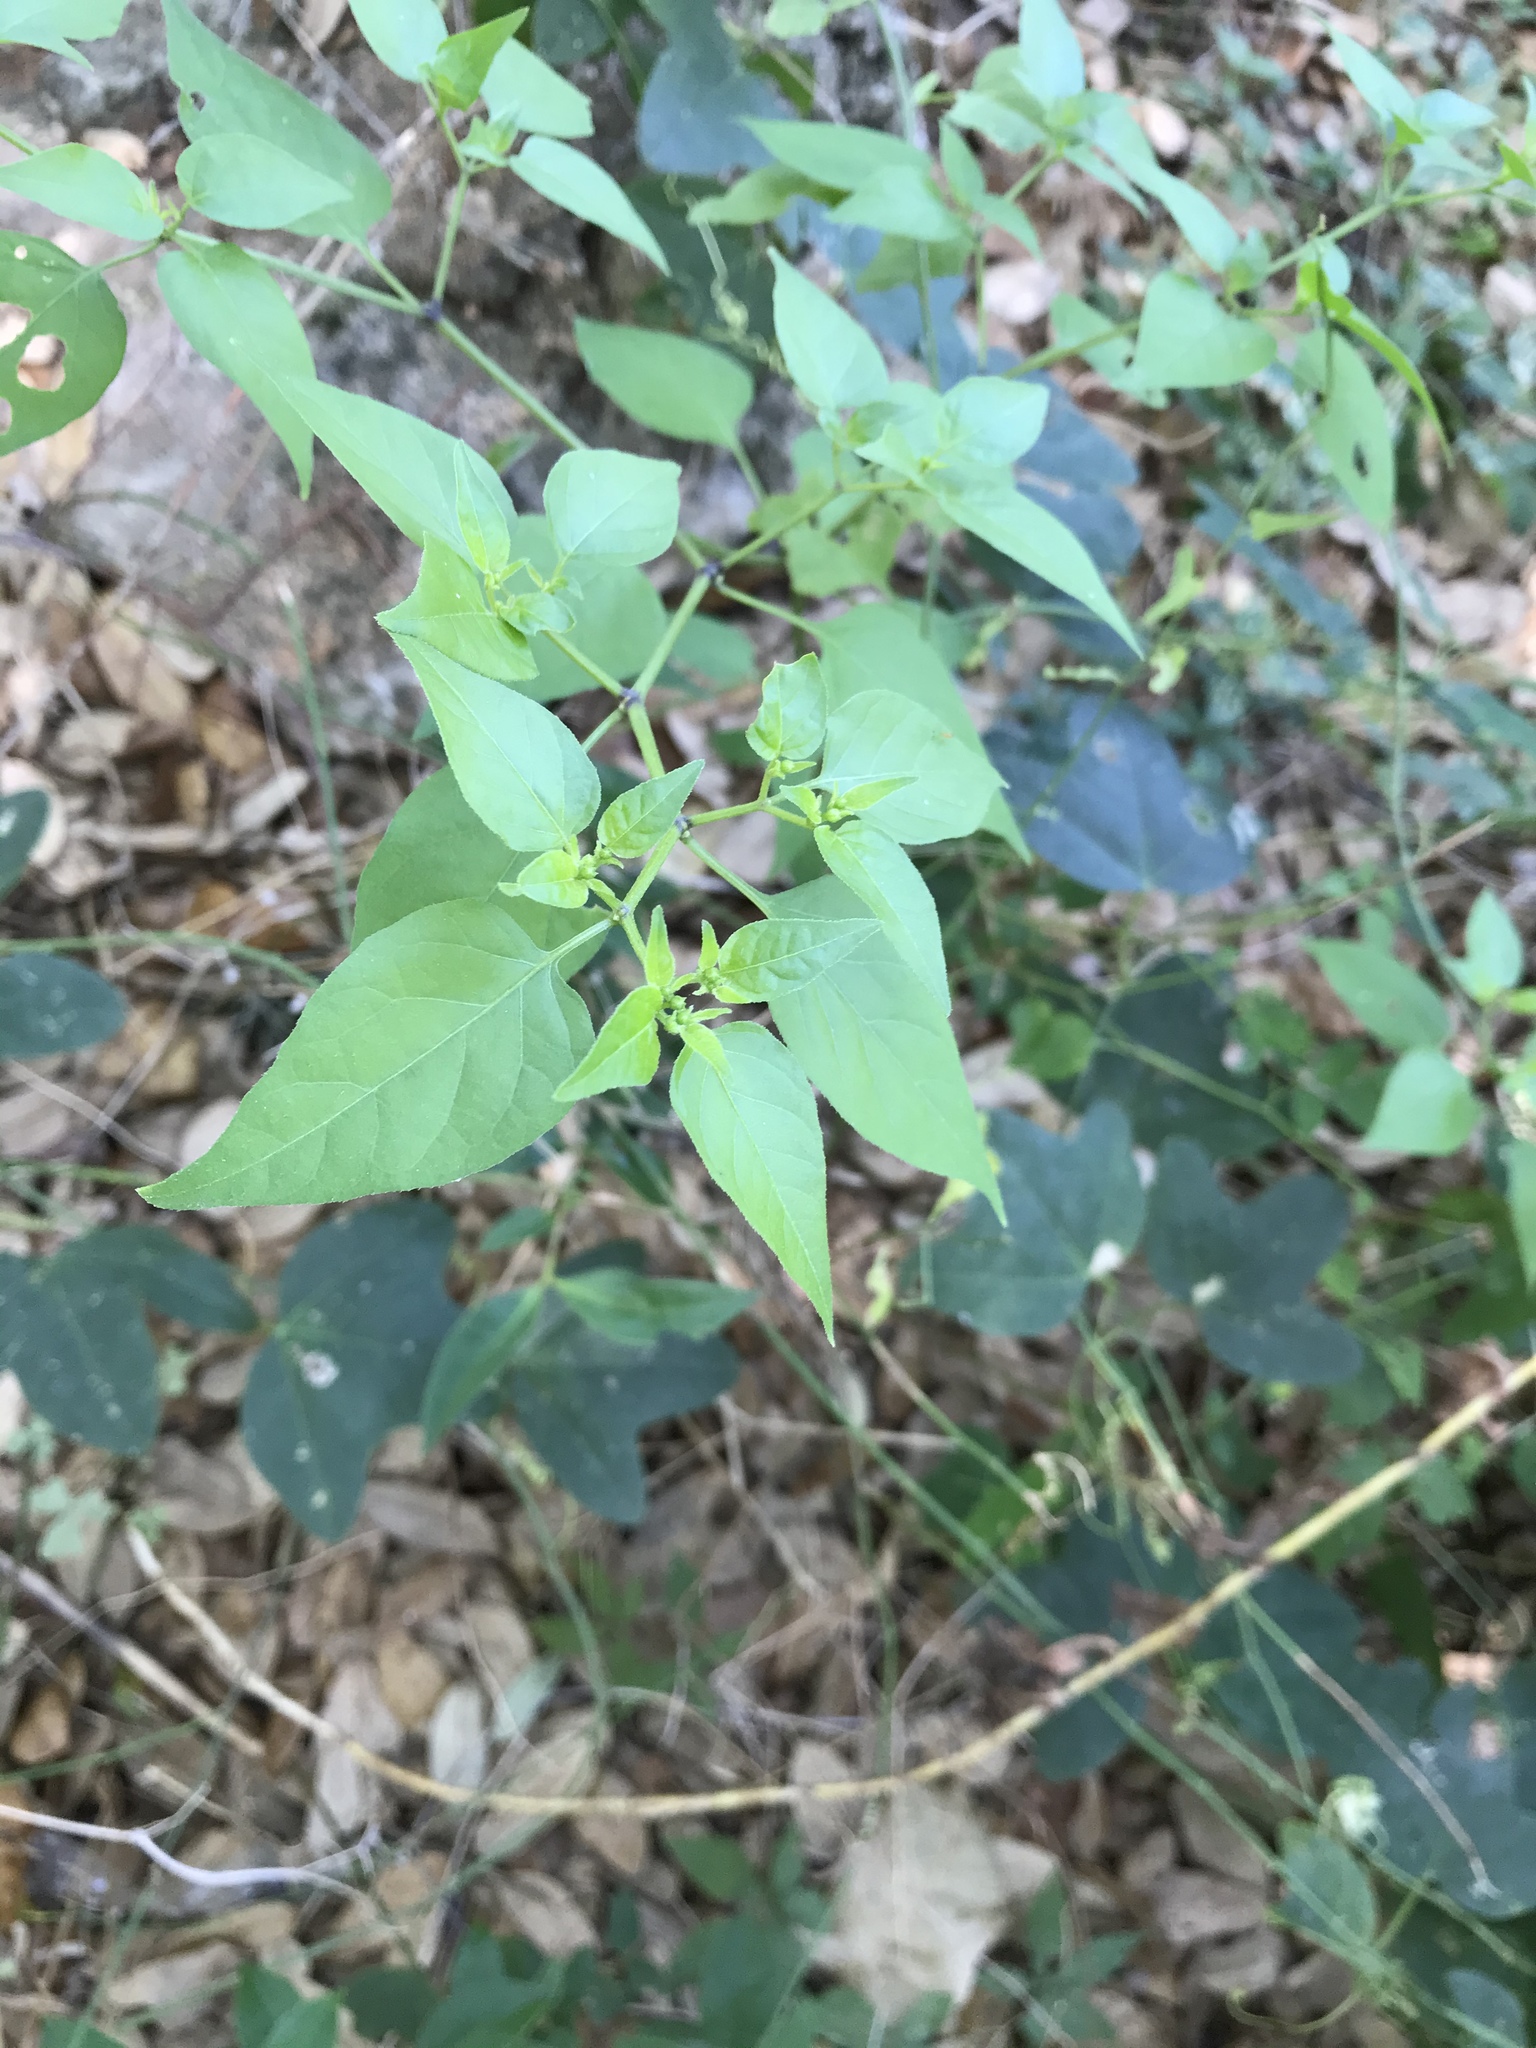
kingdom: Plantae
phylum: Tracheophyta
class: Magnoliopsida
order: Solanales
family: Solanaceae
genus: Capsicum
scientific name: Capsicum annuum
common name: Sweet pepper
